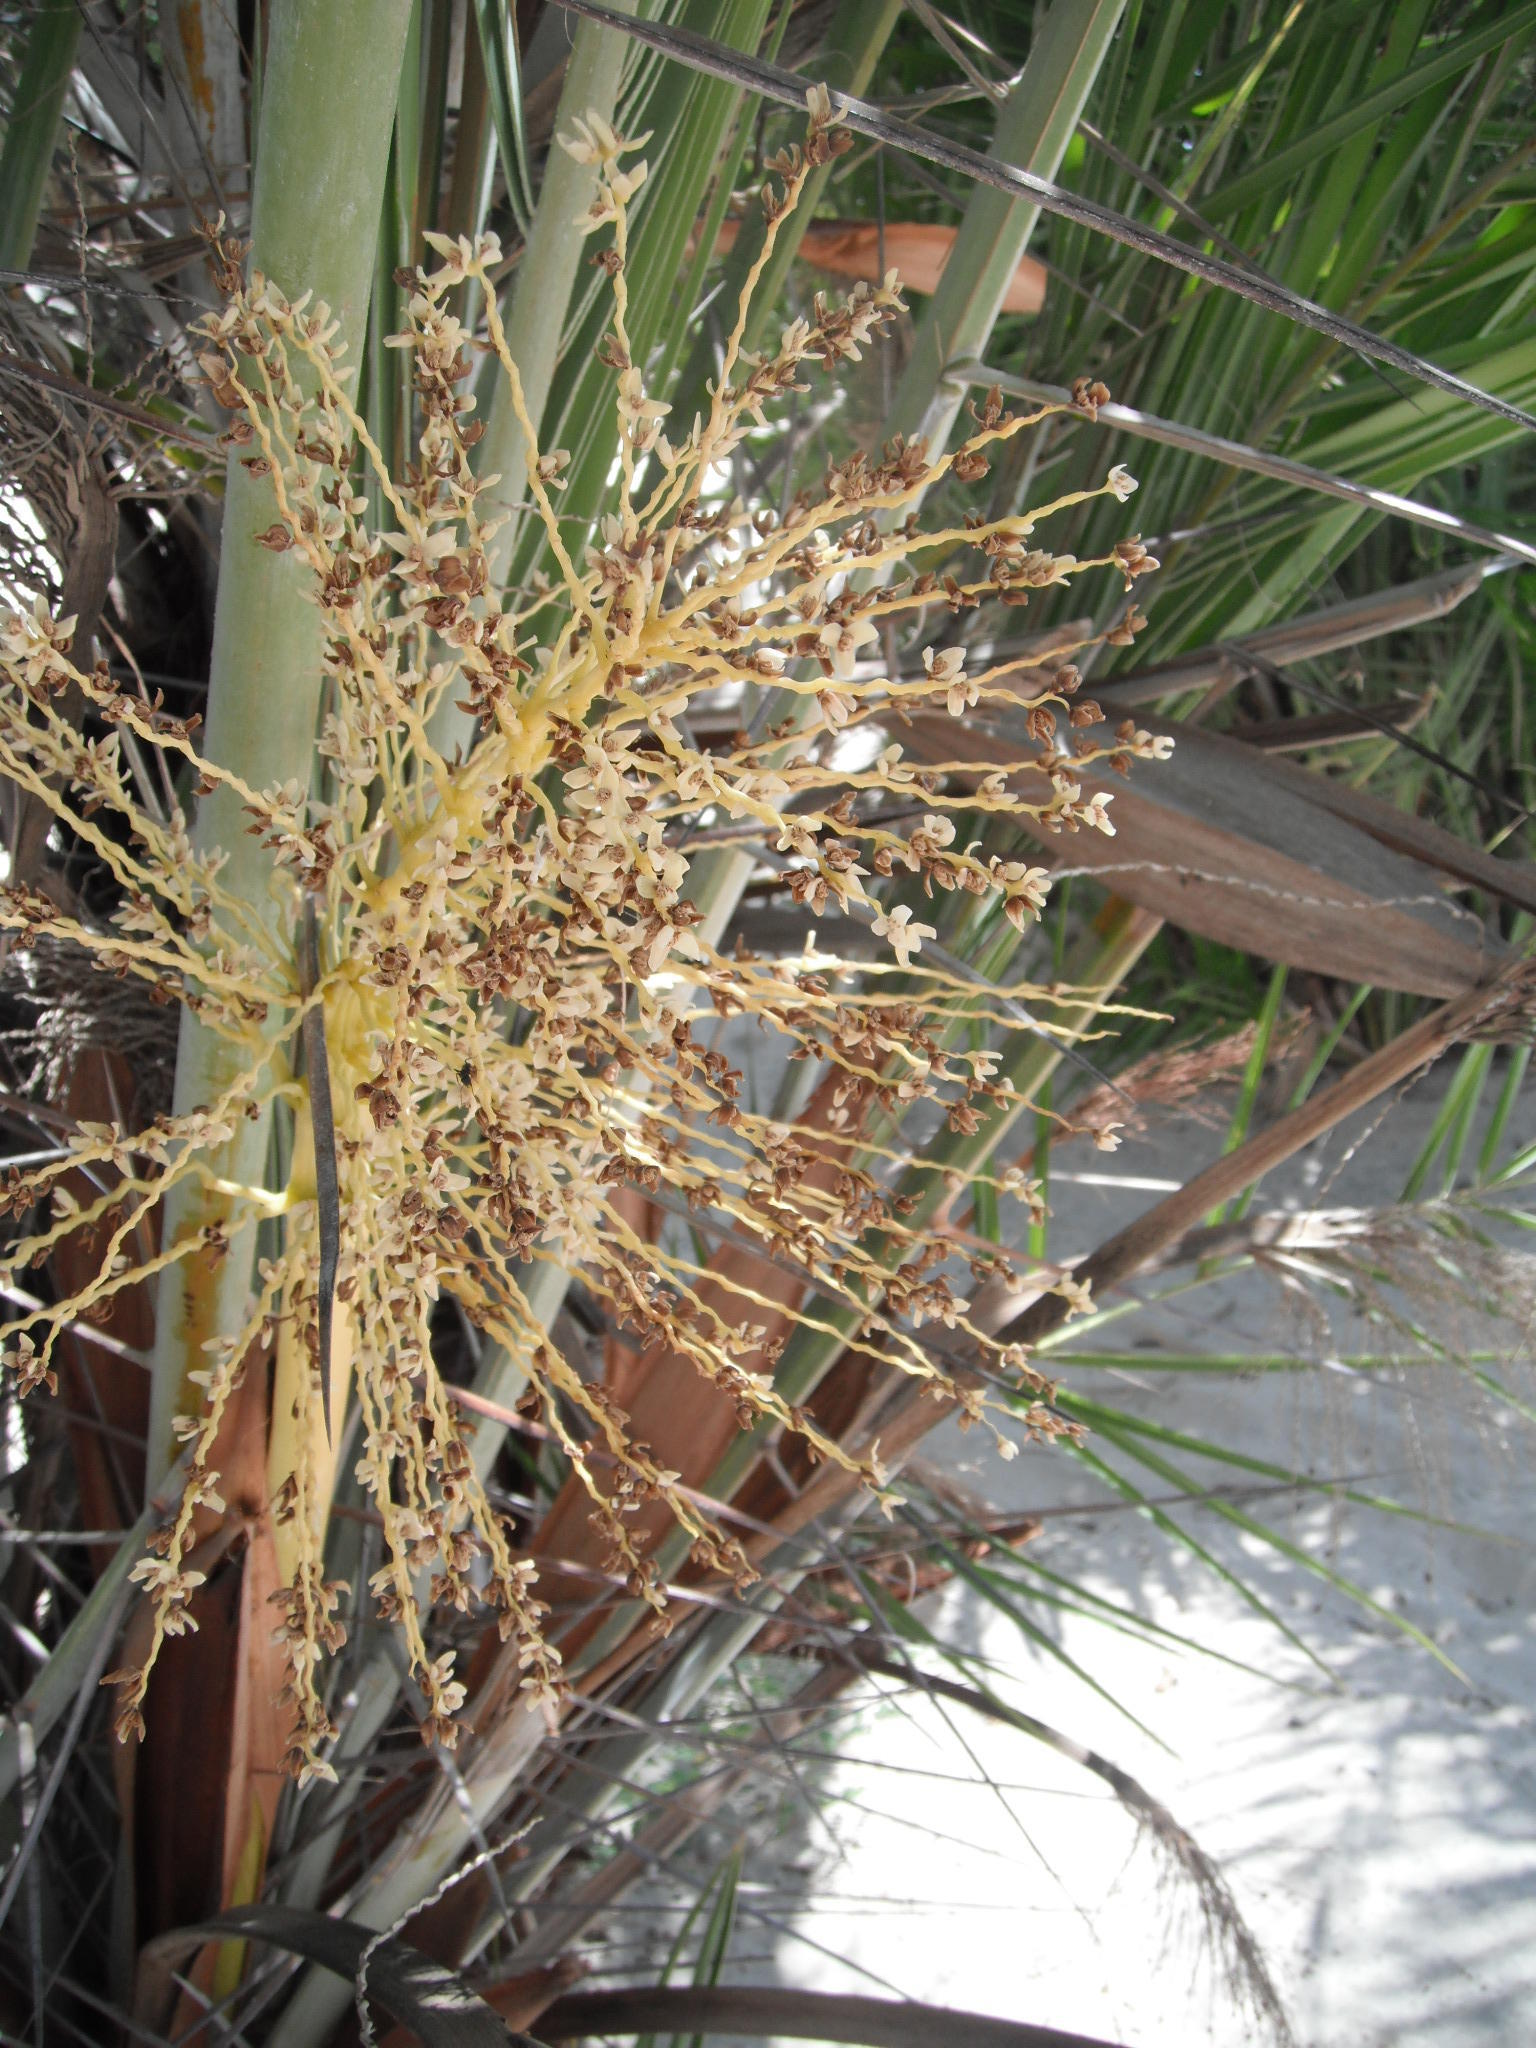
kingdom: Plantae
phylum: Tracheophyta
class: Liliopsida
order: Arecales
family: Arecaceae
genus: Phoenix
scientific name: Phoenix reclinata
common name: Senegal date palm
